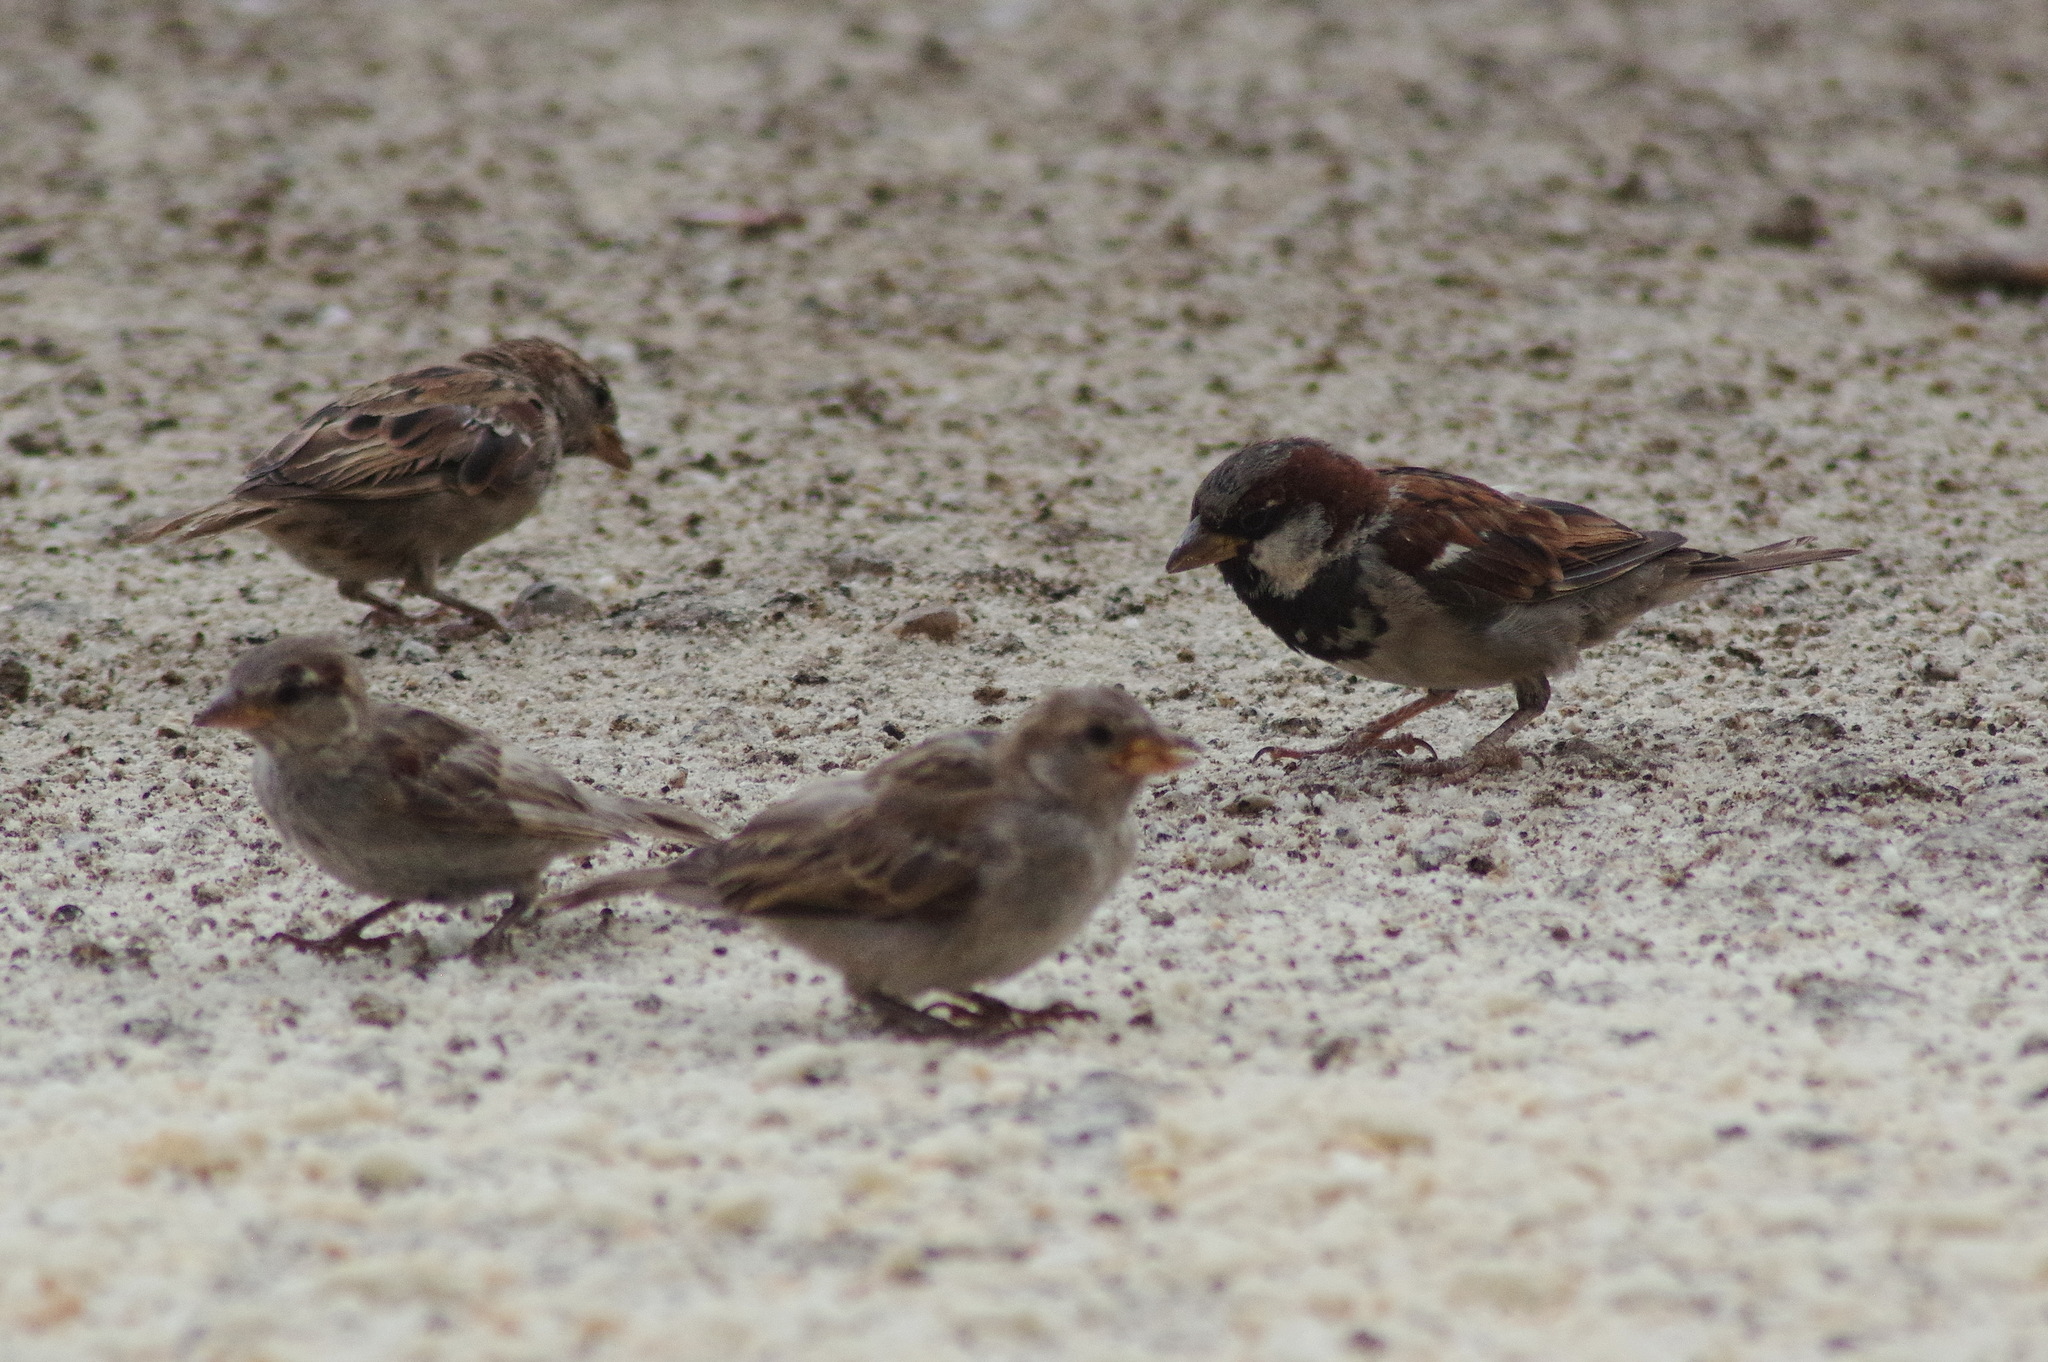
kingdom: Animalia
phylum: Chordata
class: Aves
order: Passeriformes
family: Passeridae
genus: Passer
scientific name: Passer domesticus
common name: House sparrow
